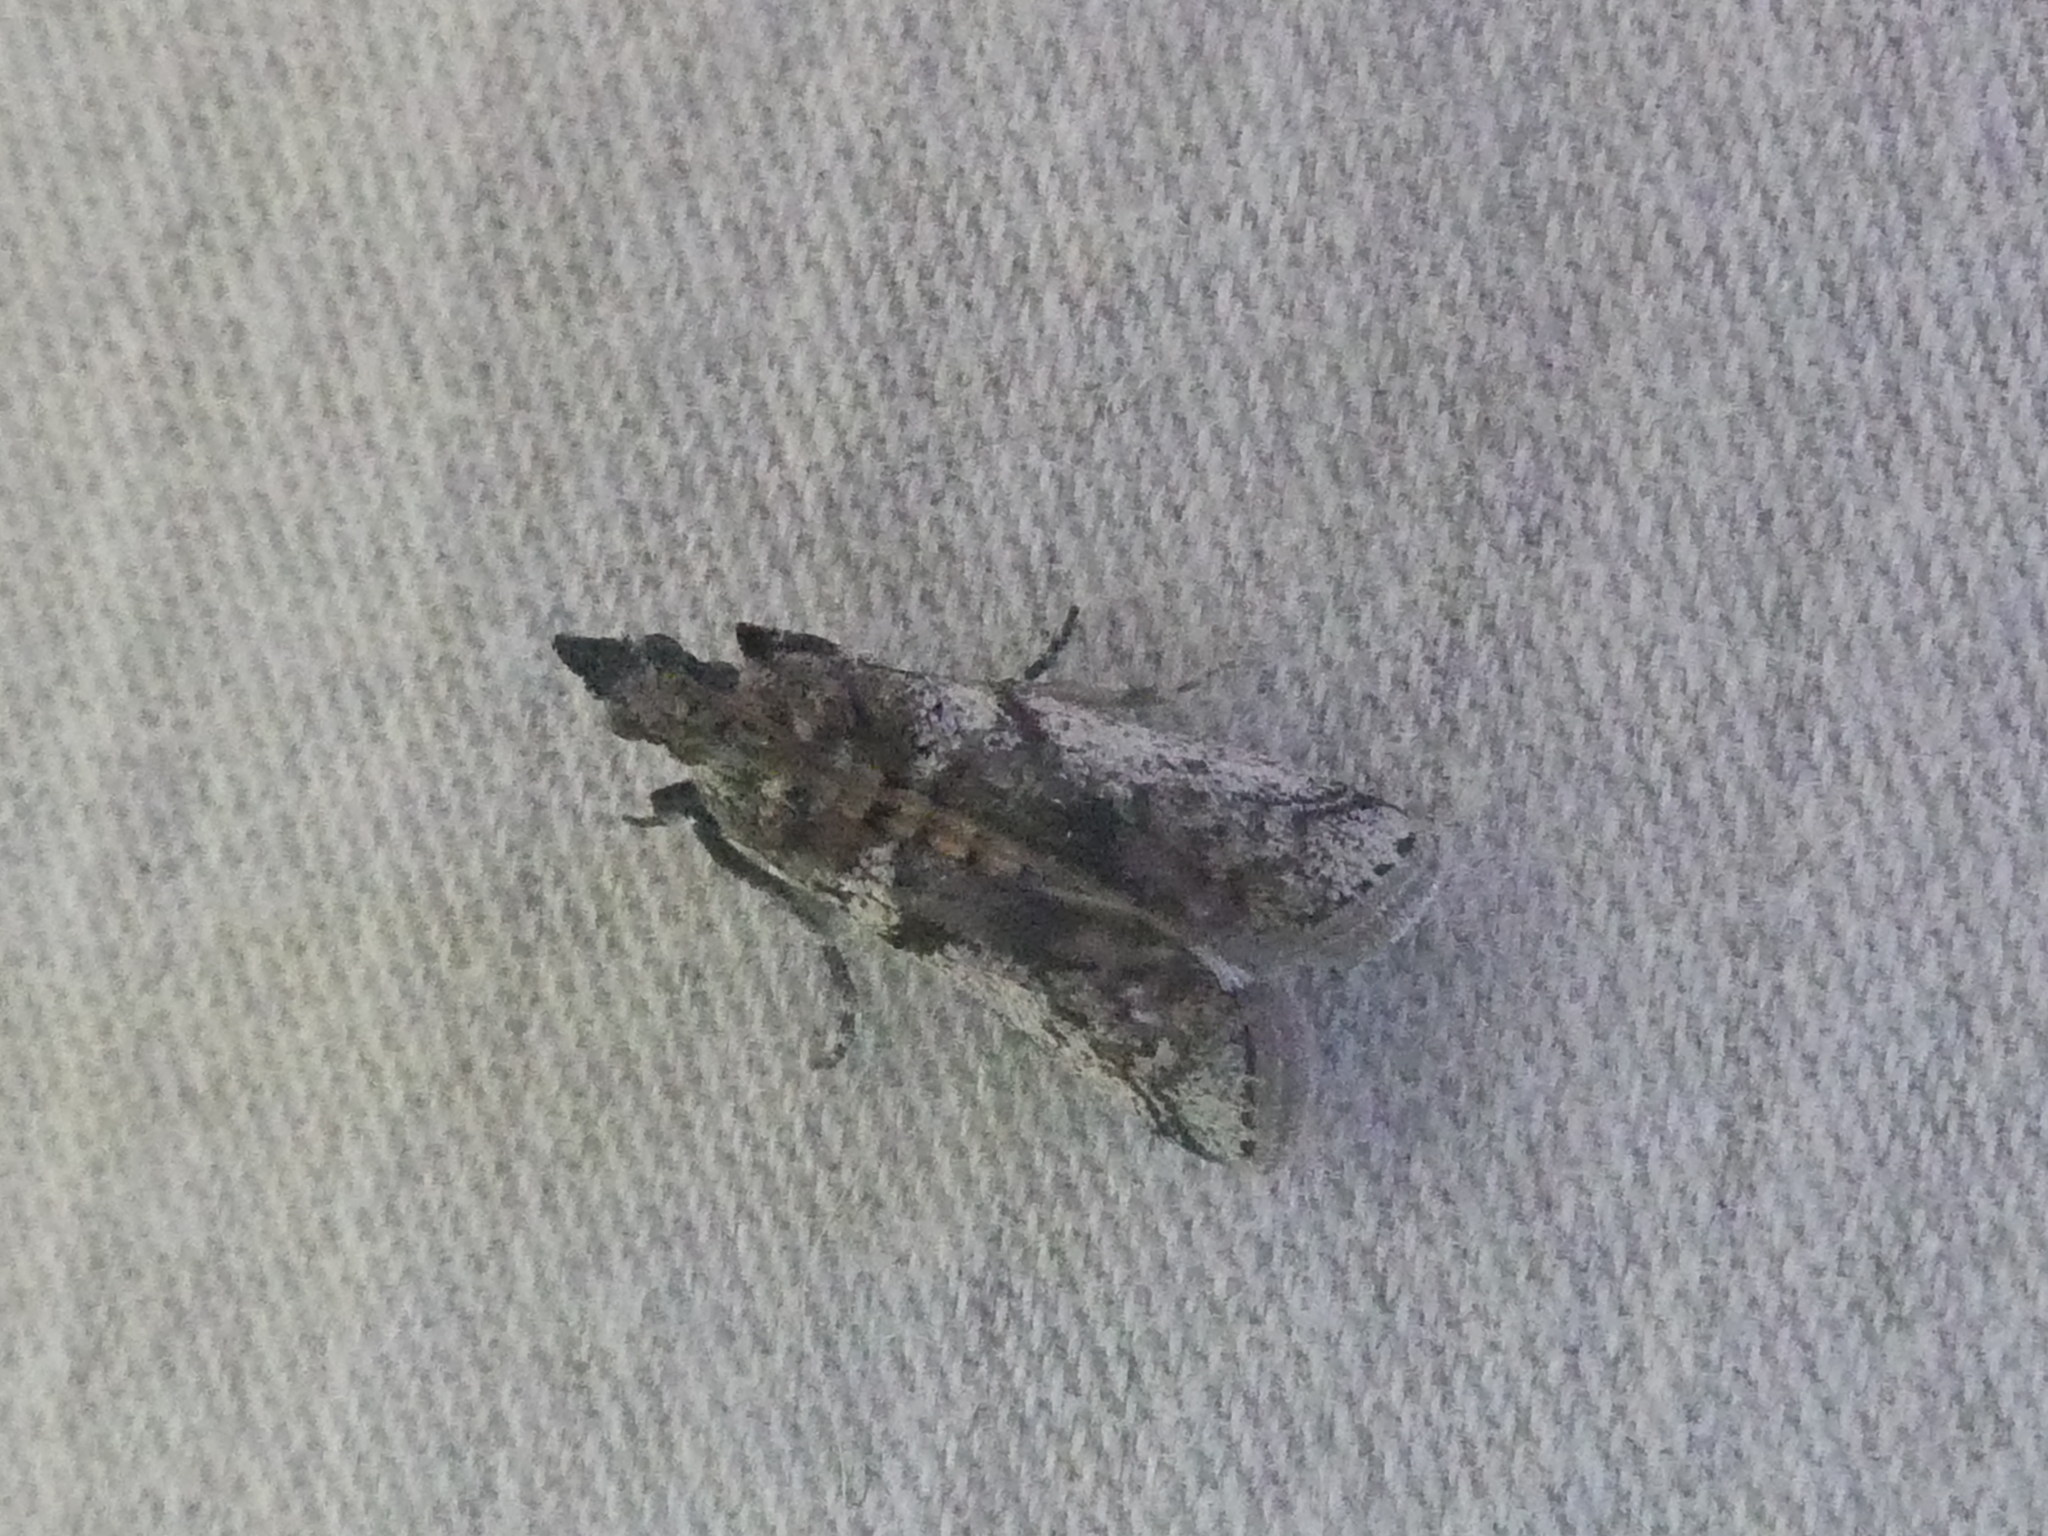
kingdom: Animalia
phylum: Arthropoda
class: Insecta
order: Lepidoptera
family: Pyralidae
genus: Laetilia
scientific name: Laetilia coccidivora
